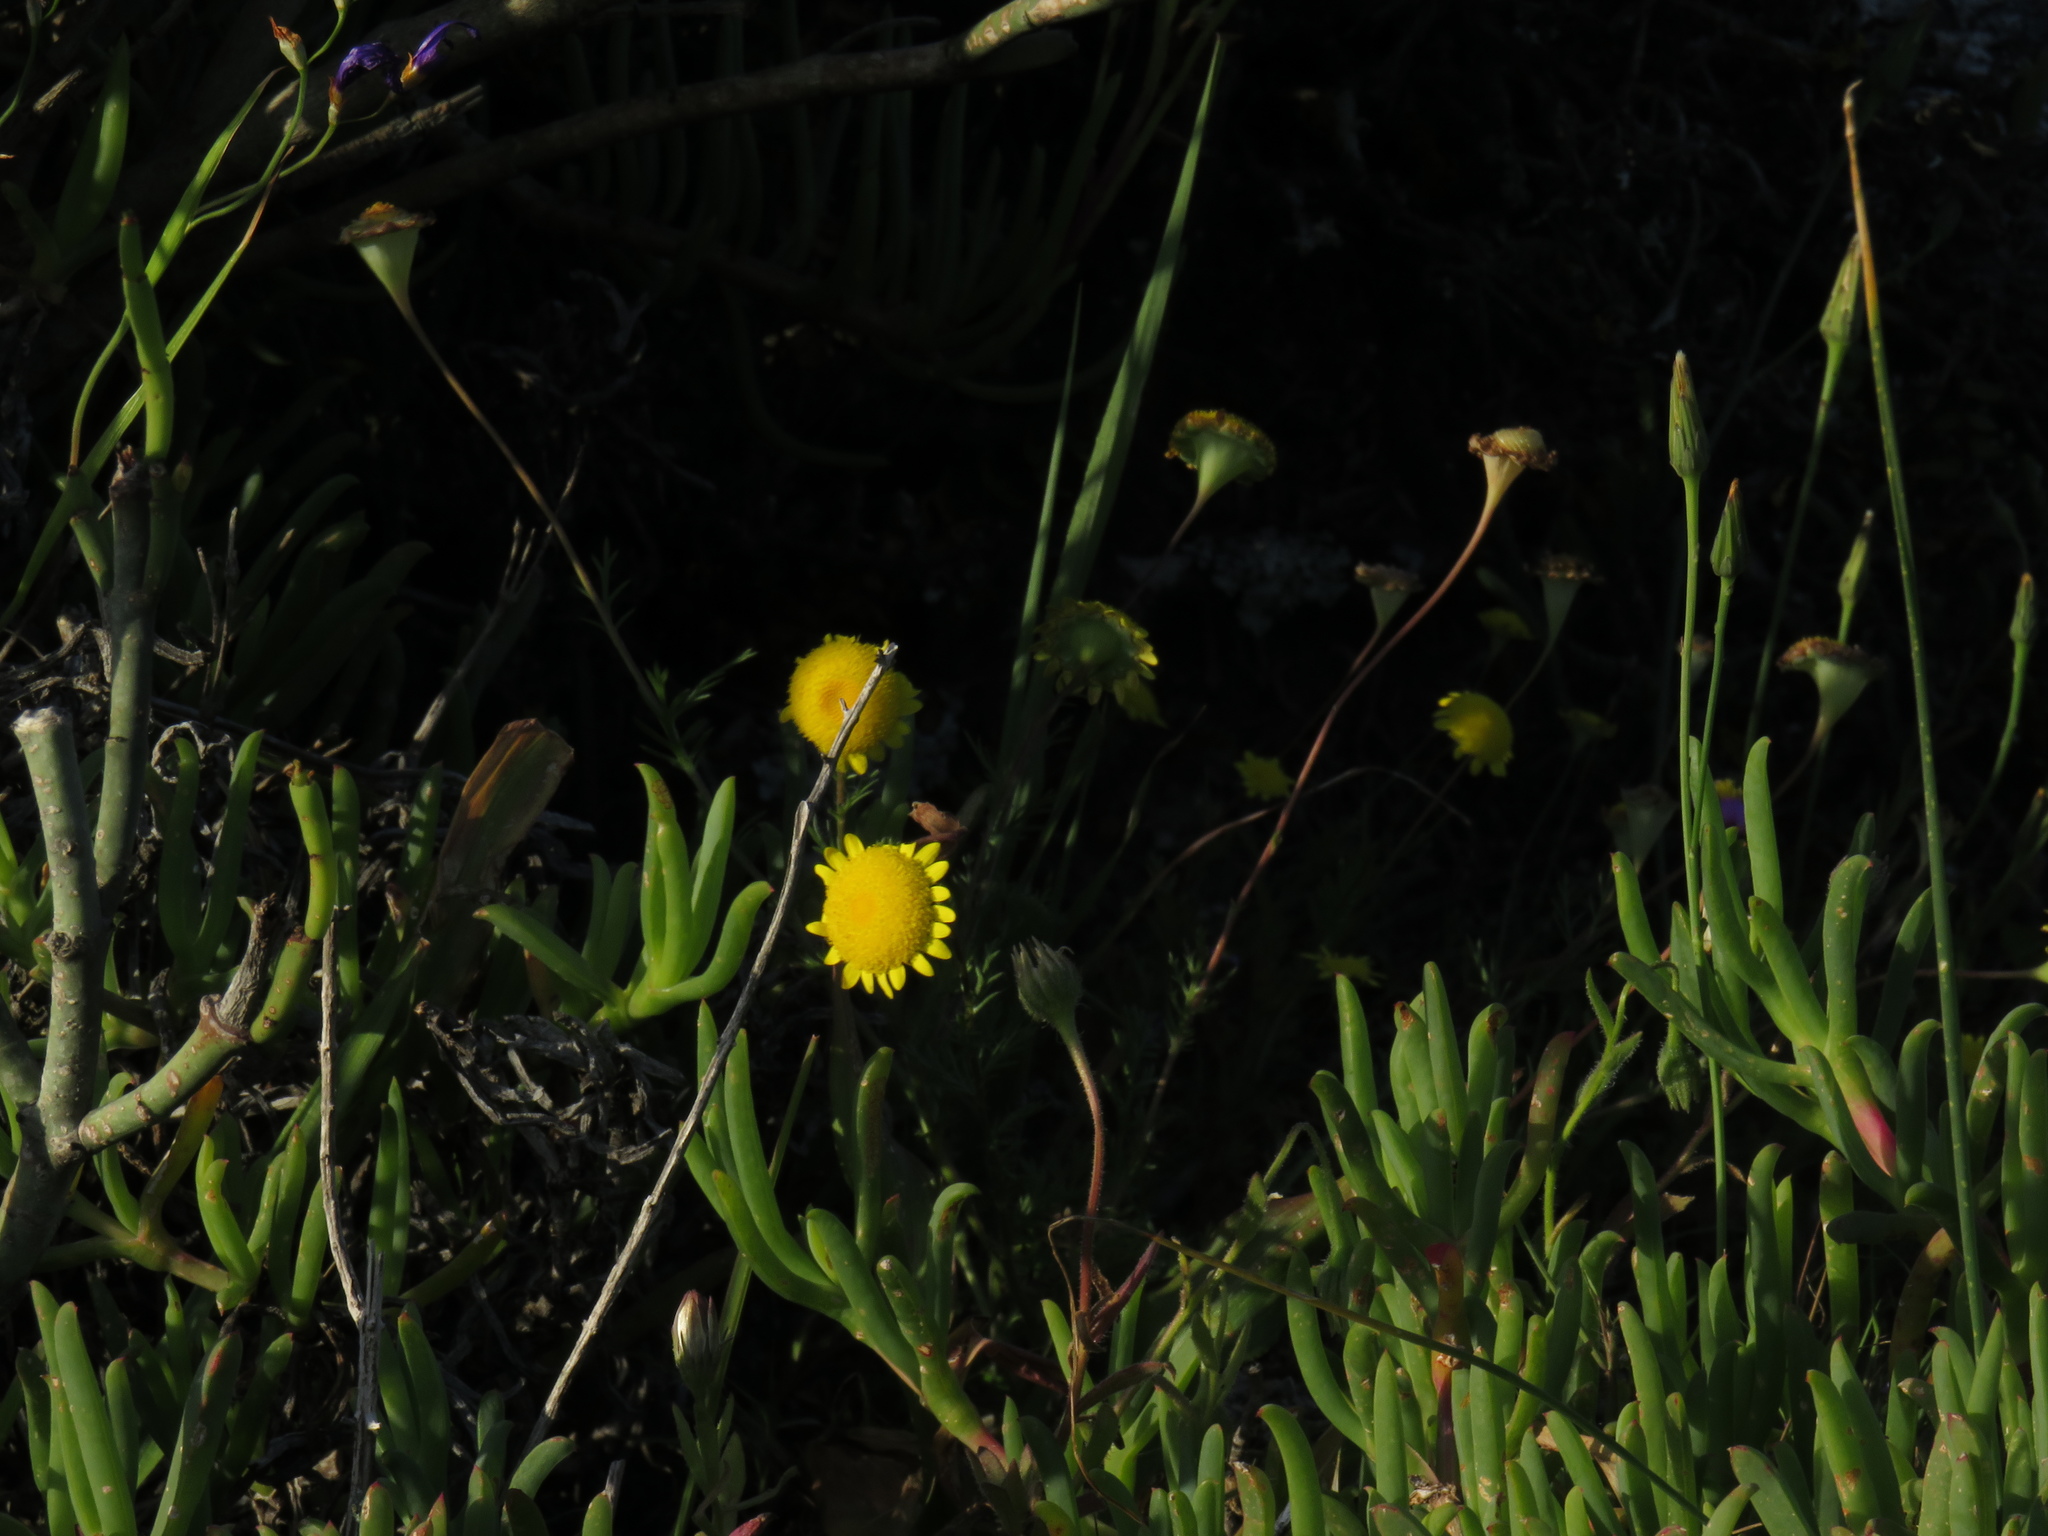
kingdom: Plantae
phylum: Tracheophyta
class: Magnoliopsida
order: Asterales
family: Asteraceae
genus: Cotula
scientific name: Cotula pruinosa
